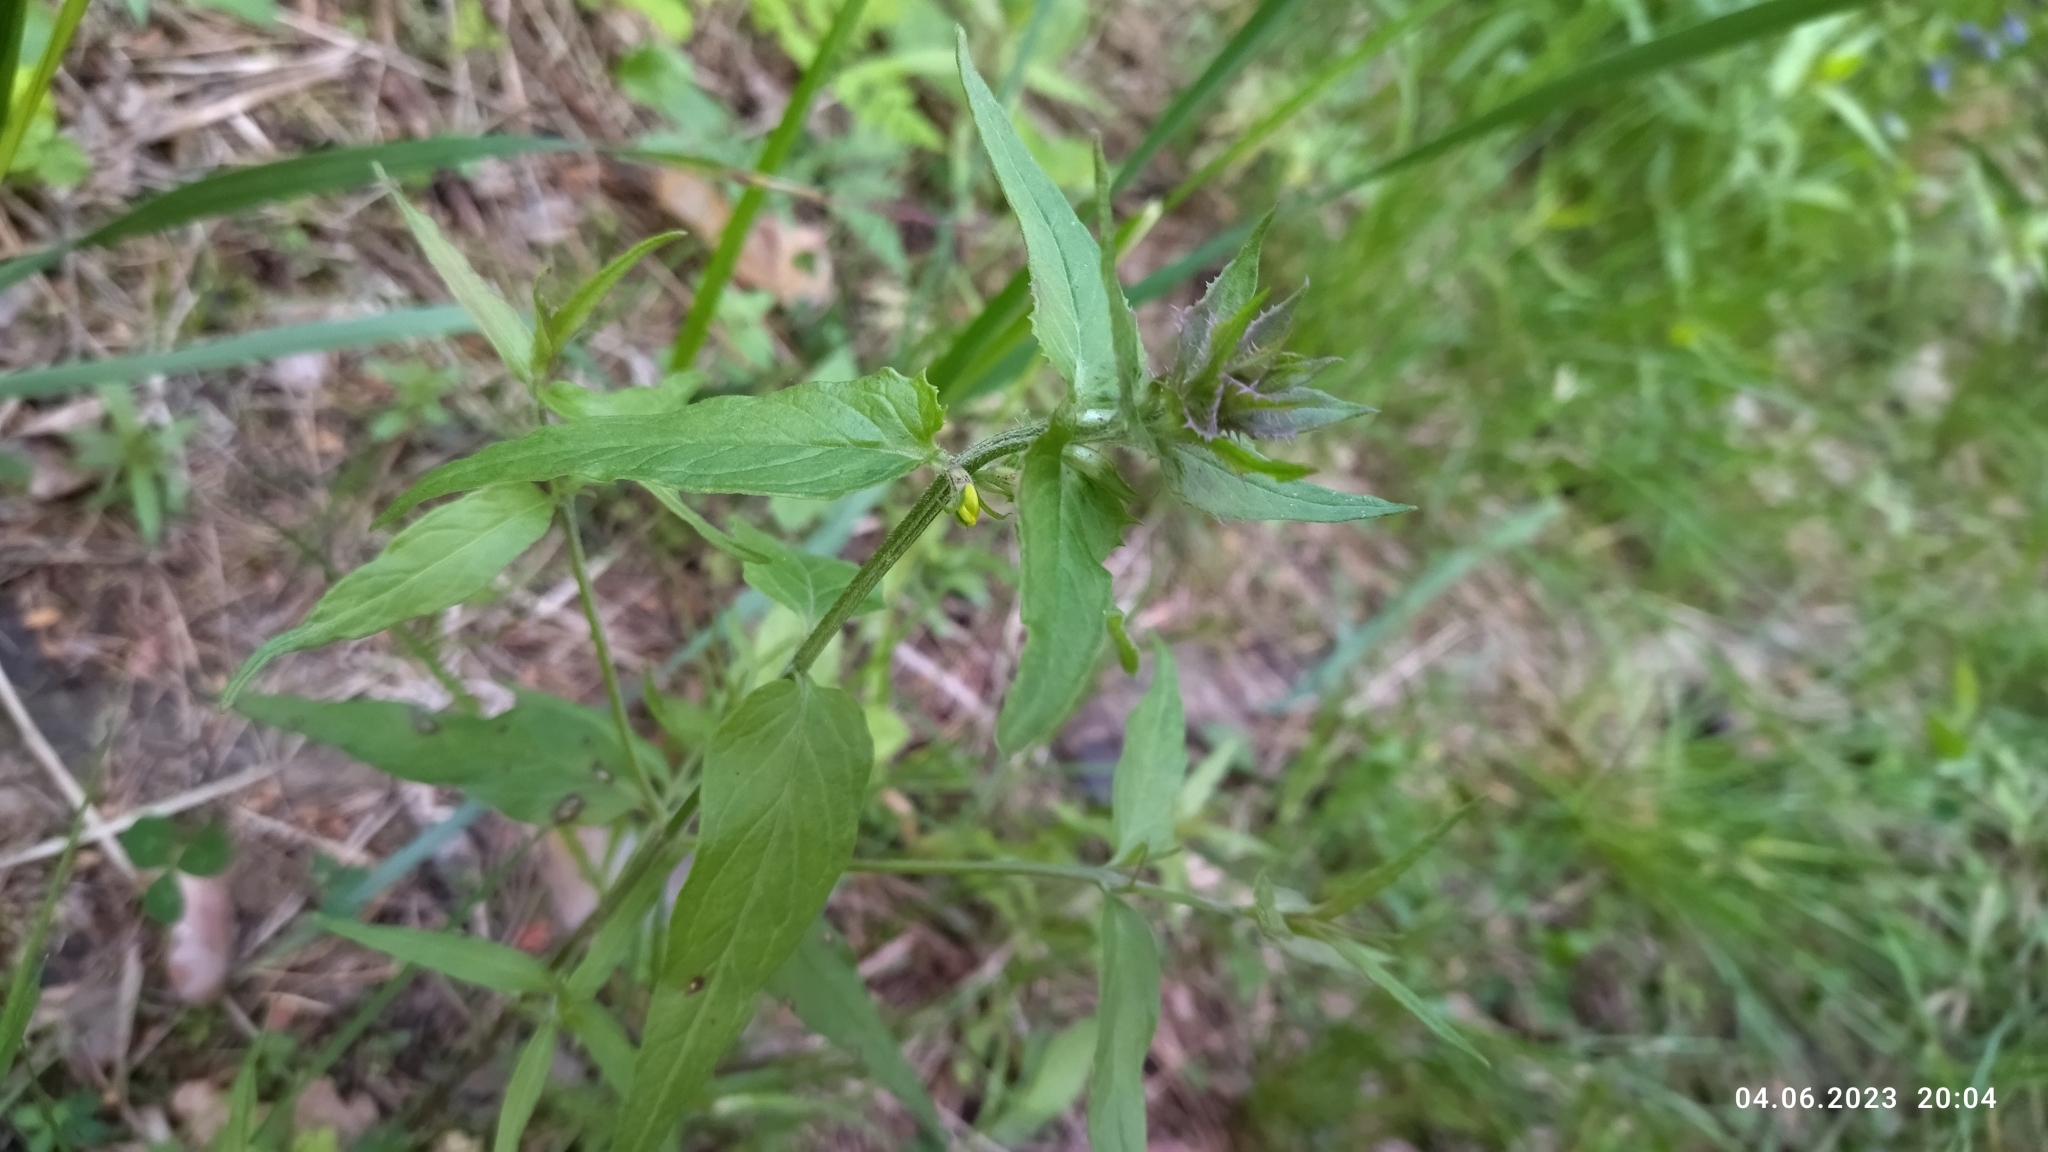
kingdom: Plantae
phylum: Tracheophyta
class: Magnoliopsida
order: Lamiales
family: Orobanchaceae
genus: Melampyrum
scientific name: Melampyrum nemorosum
